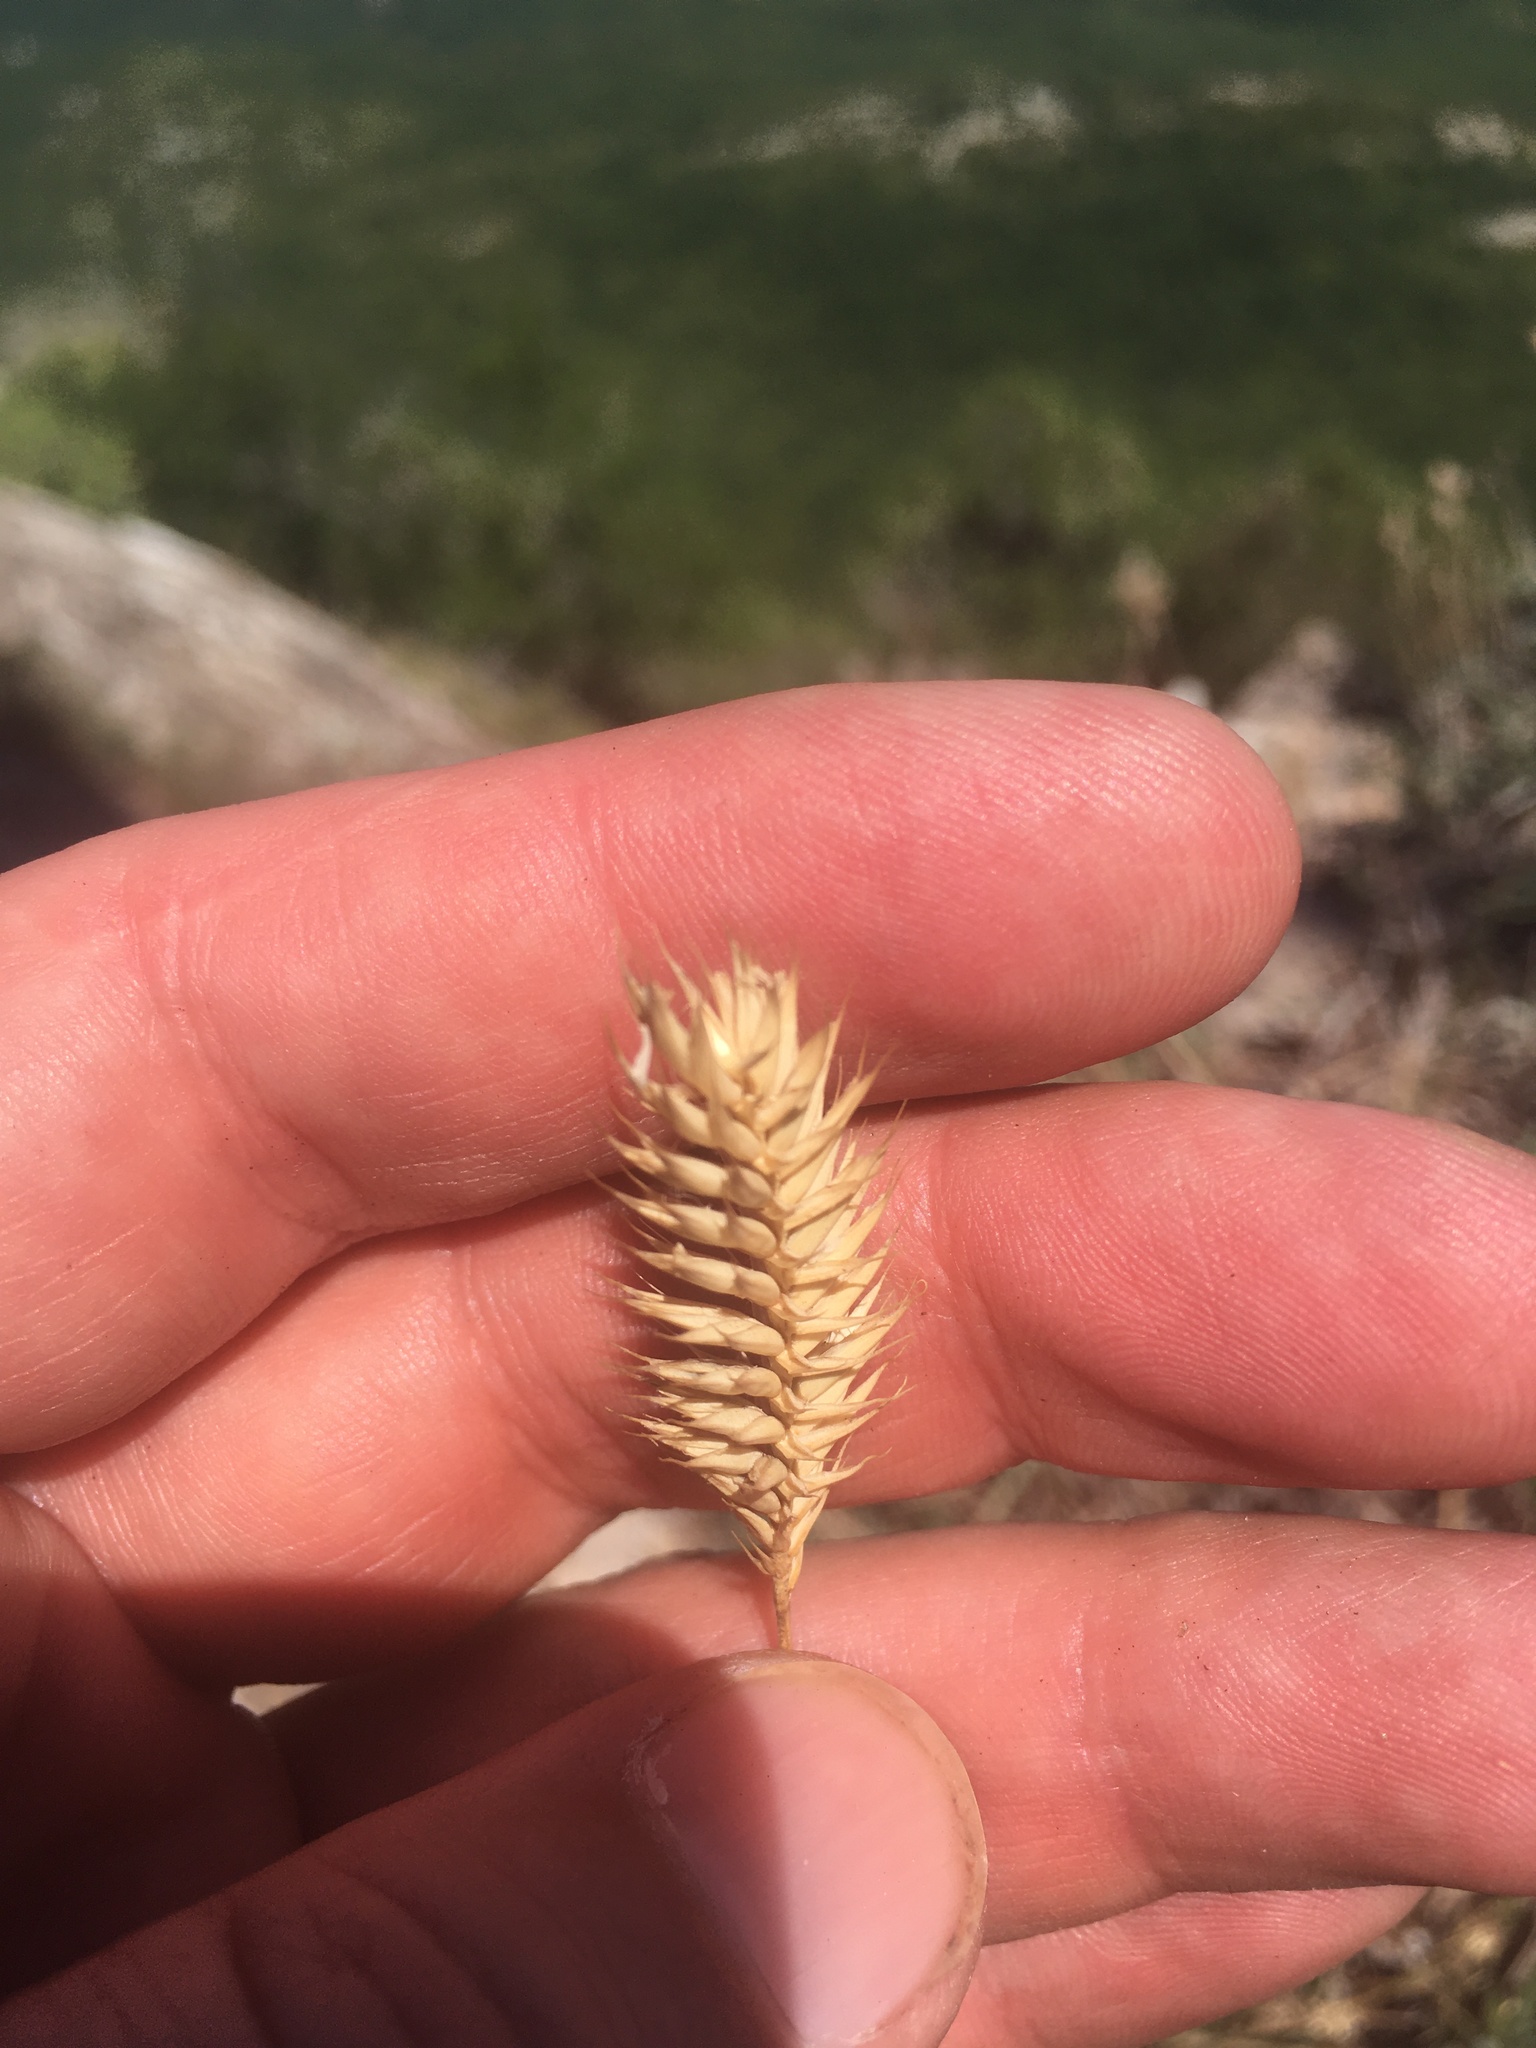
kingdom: Plantae
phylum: Tracheophyta
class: Liliopsida
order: Poales
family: Poaceae
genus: Agropyron
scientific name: Agropyron cristatum
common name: Crested wheatgrass
